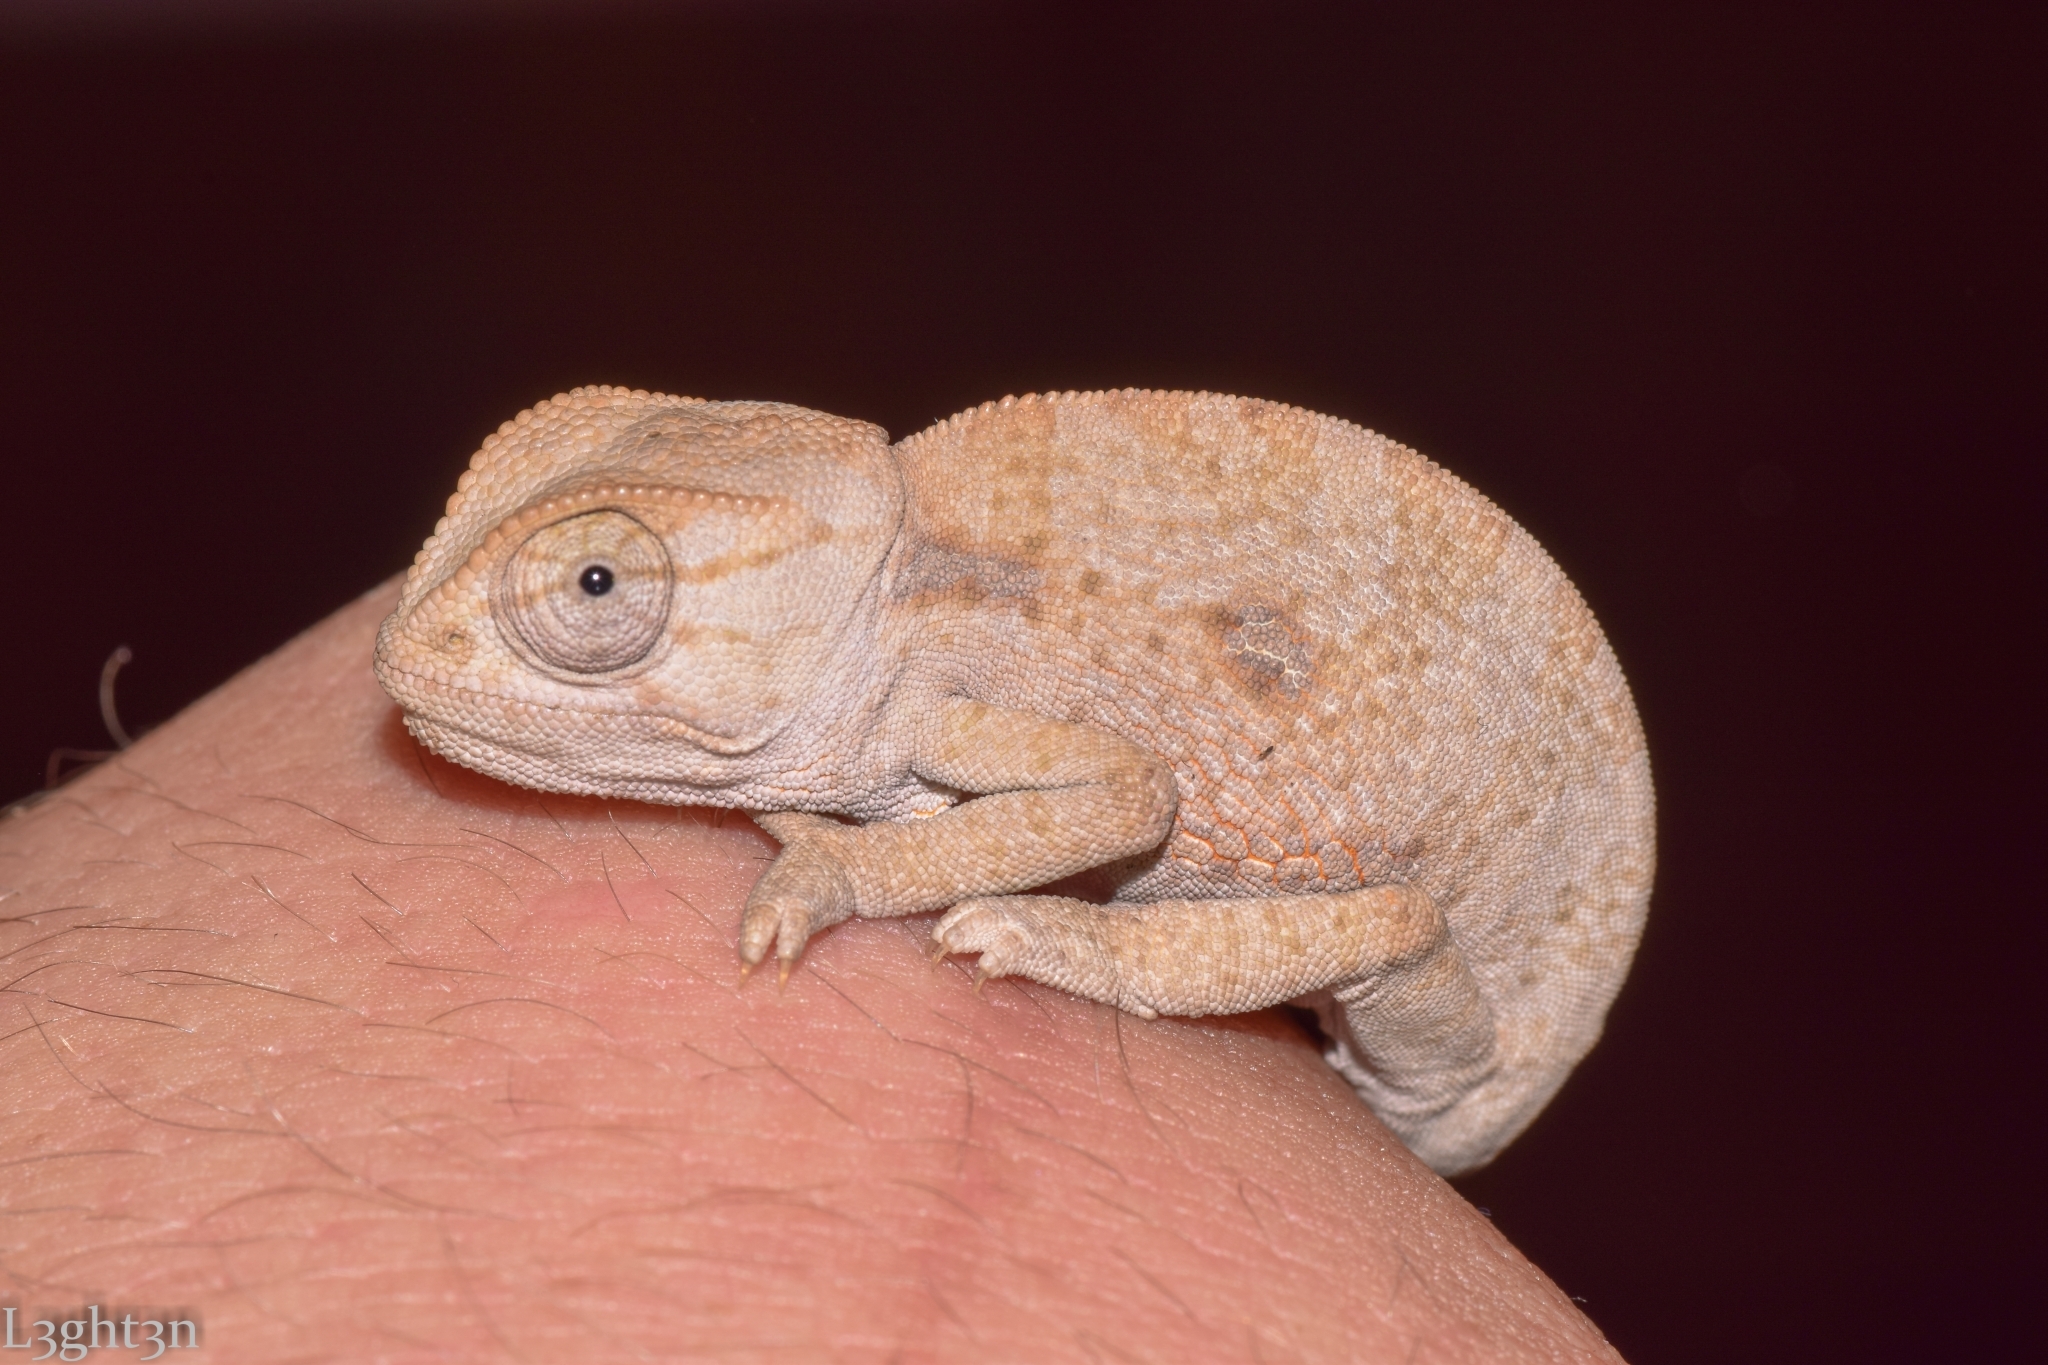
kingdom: Animalia
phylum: Chordata
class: Squamata
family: Chamaeleonidae
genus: Chamaeleo
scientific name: Chamaeleo dilepis
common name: Flapneck chameleon
